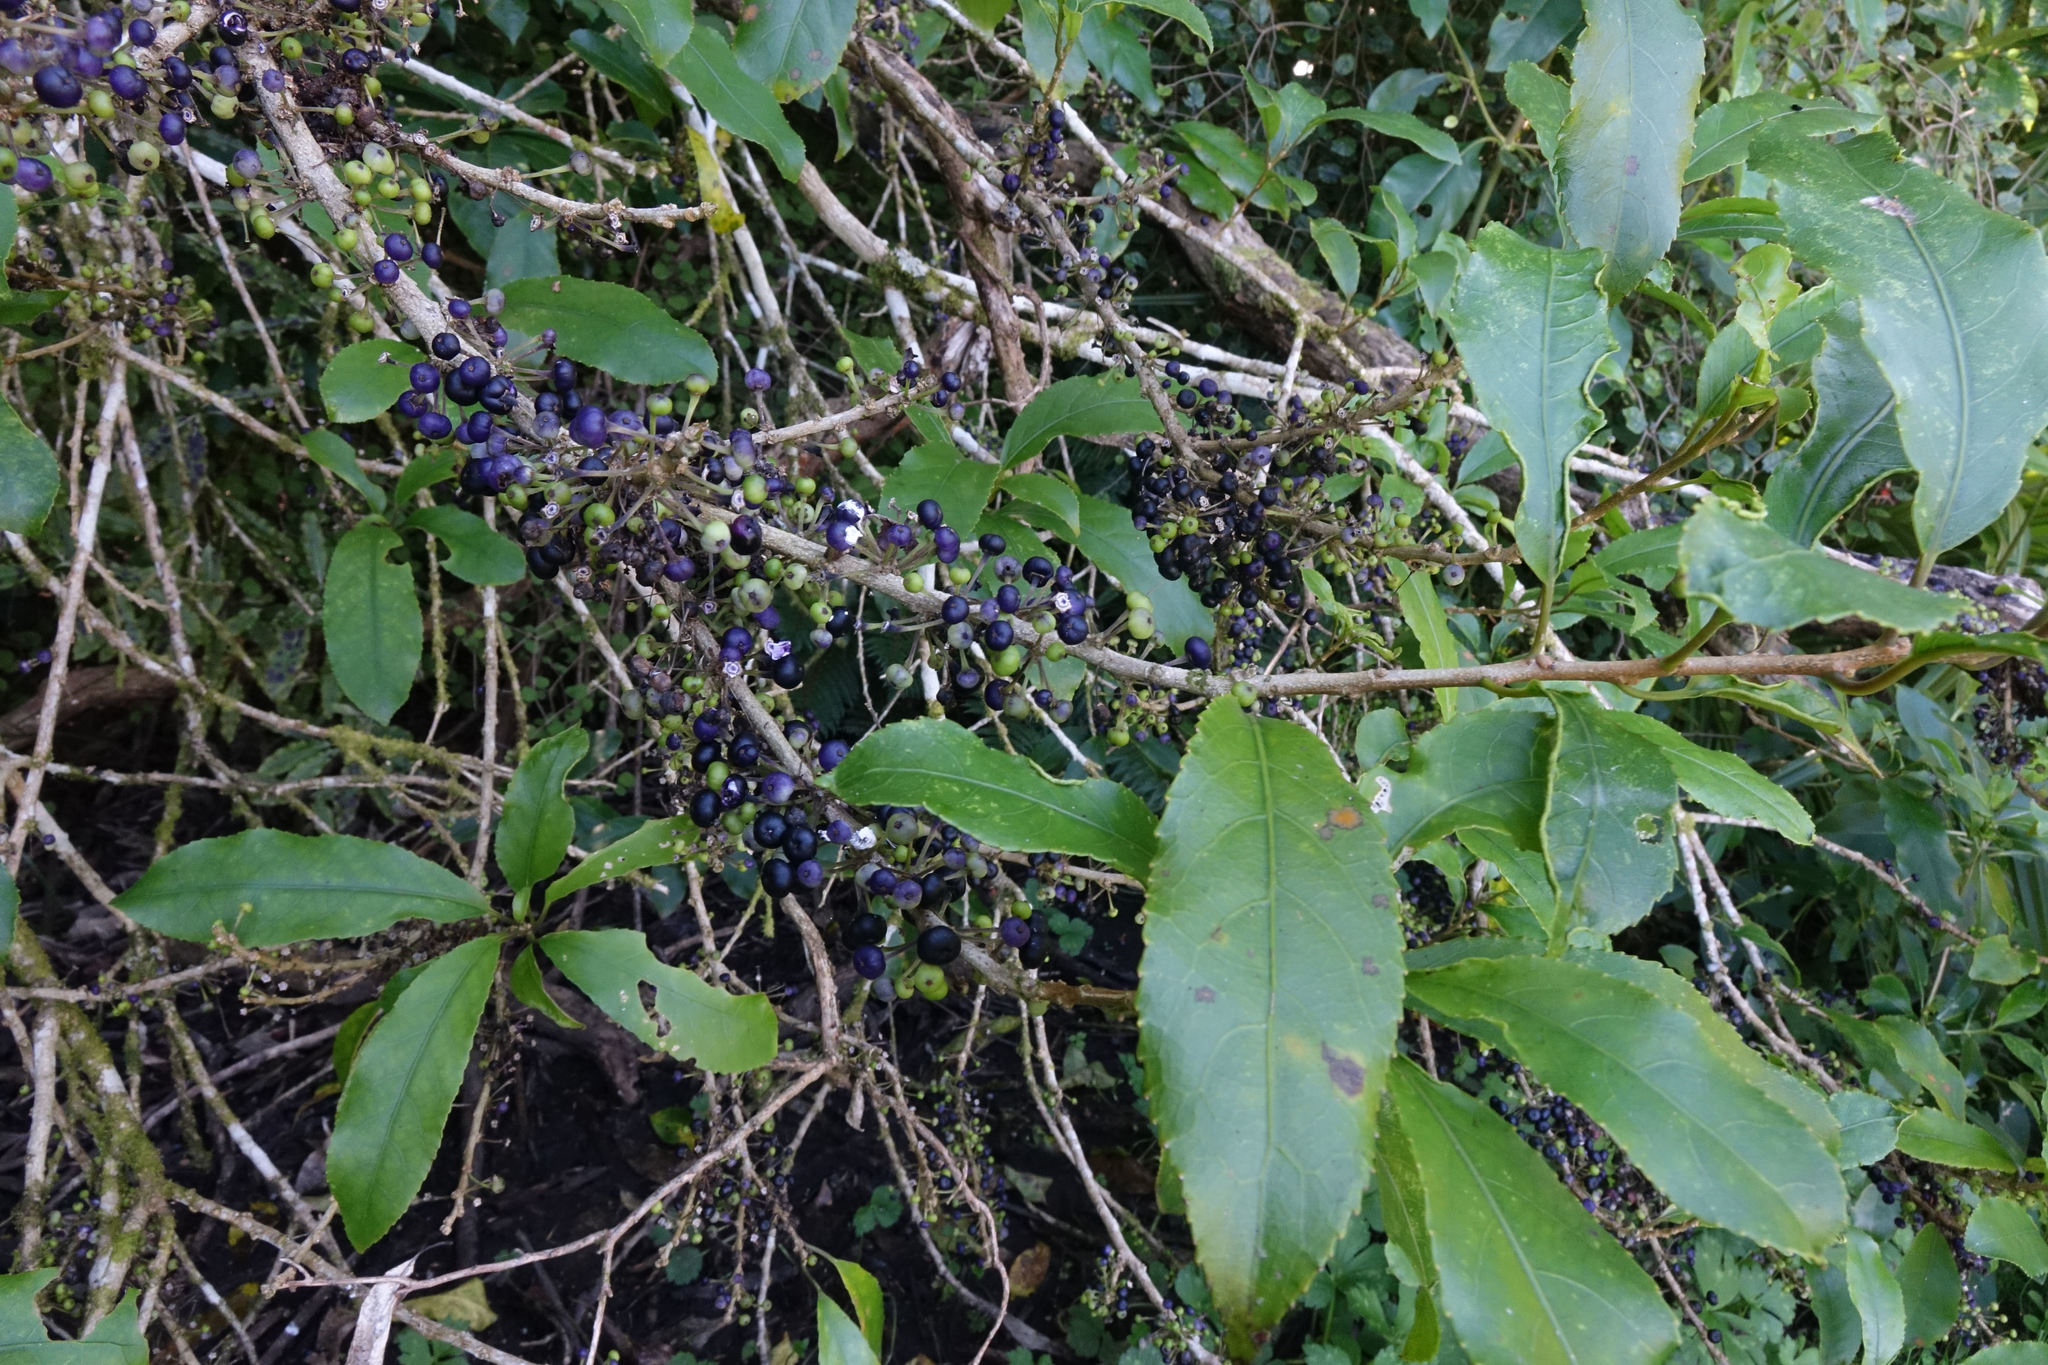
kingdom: Plantae
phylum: Tracheophyta
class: Magnoliopsida
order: Malpighiales
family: Violaceae
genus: Melicytus
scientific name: Melicytus ramiflorus
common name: Mahoe
